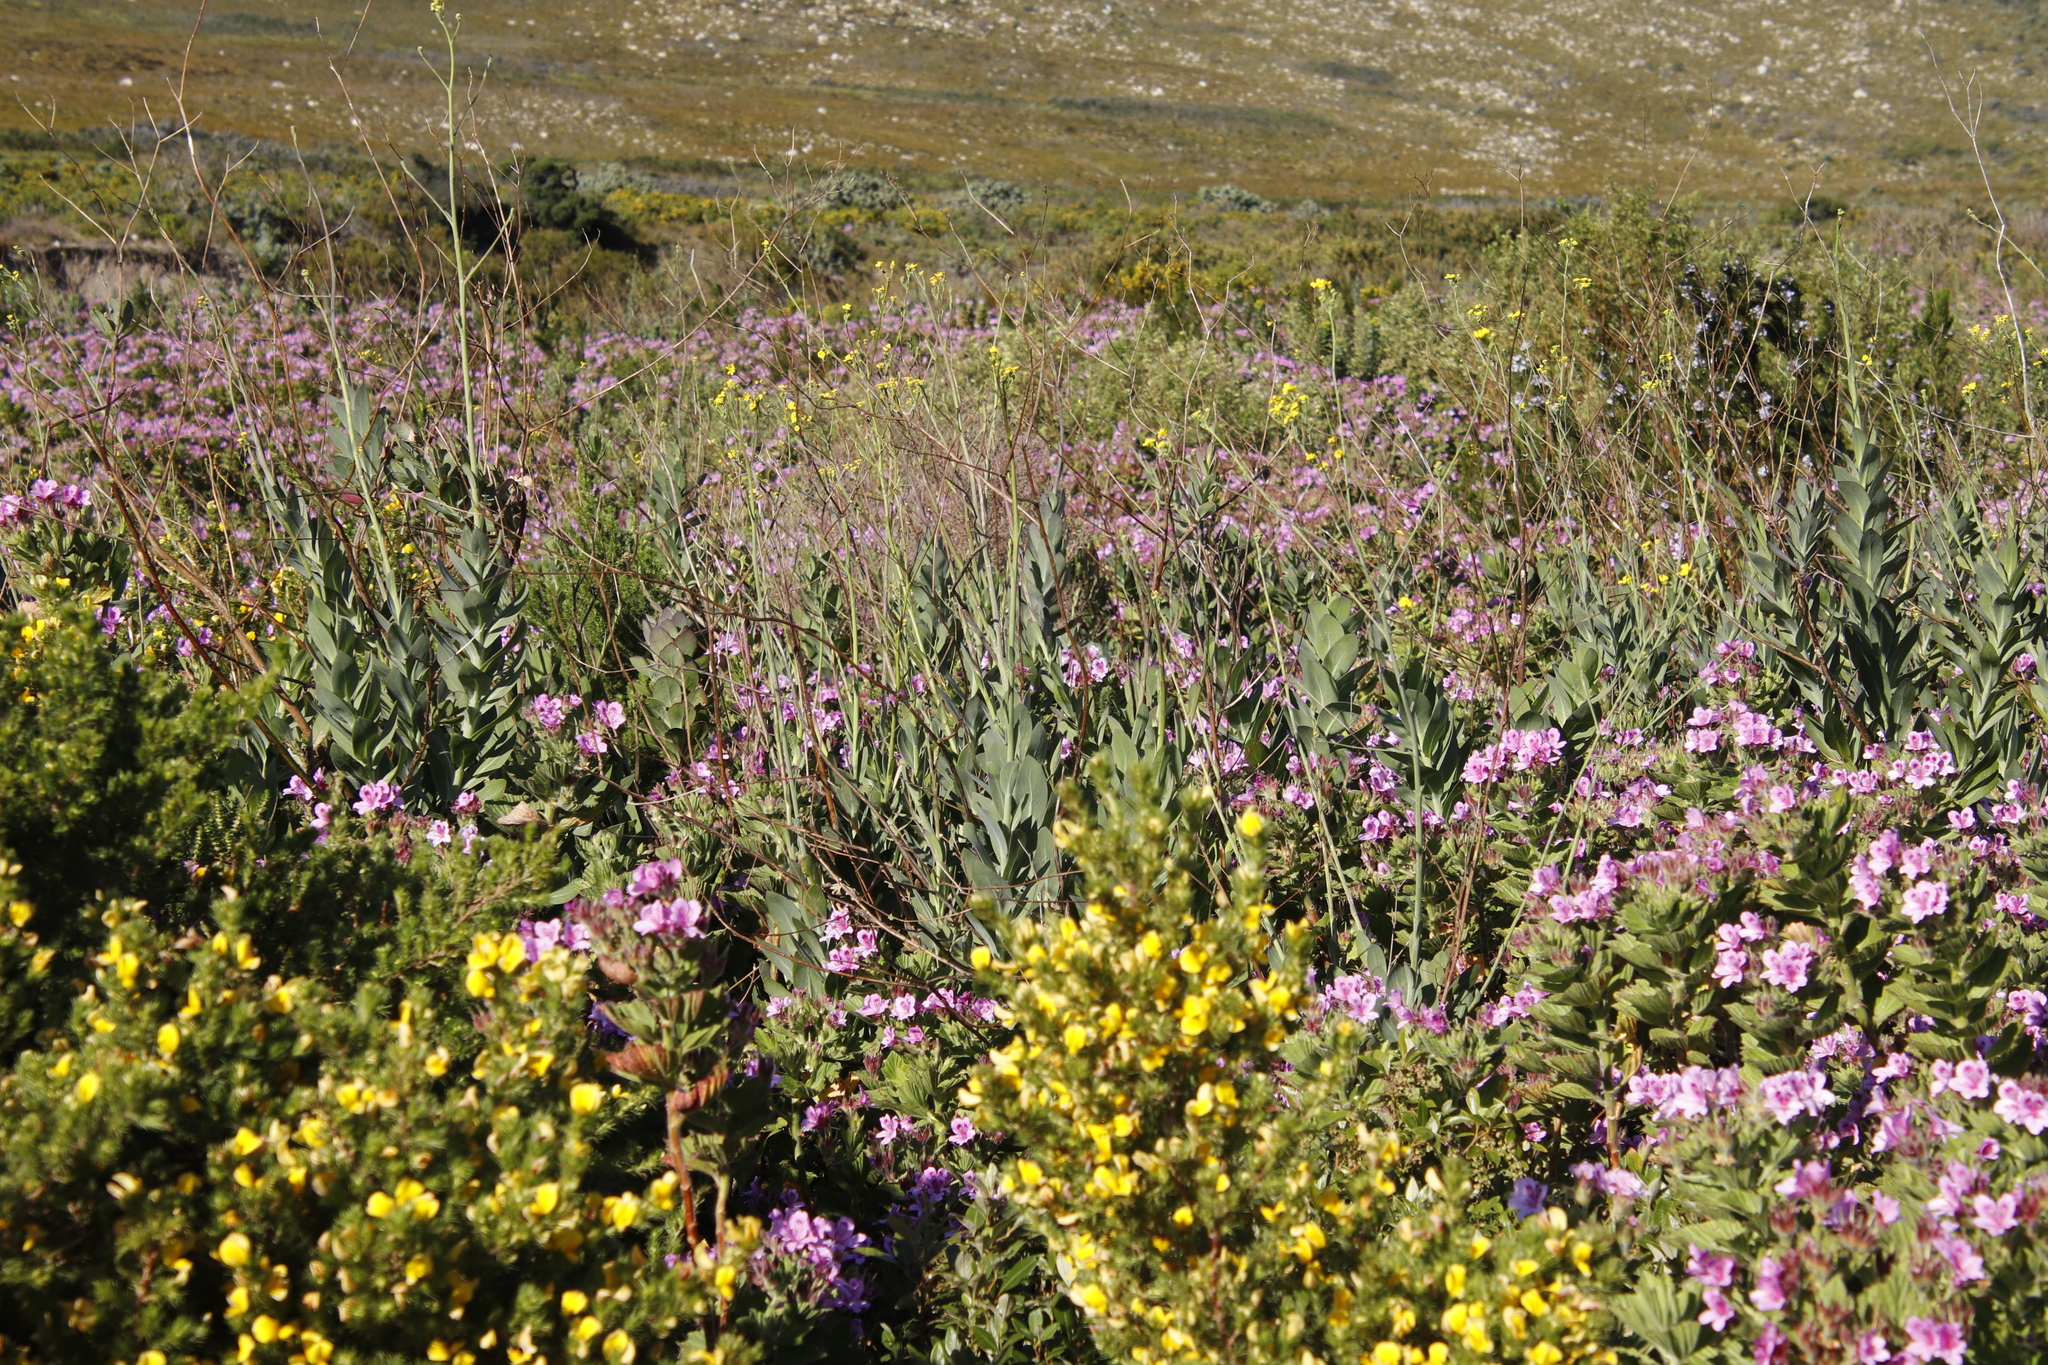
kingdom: Plantae
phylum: Tracheophyta
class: Magnoliopsida
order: Asterales
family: Asteraceae
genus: Othonna
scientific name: Othonna quinquedentata
